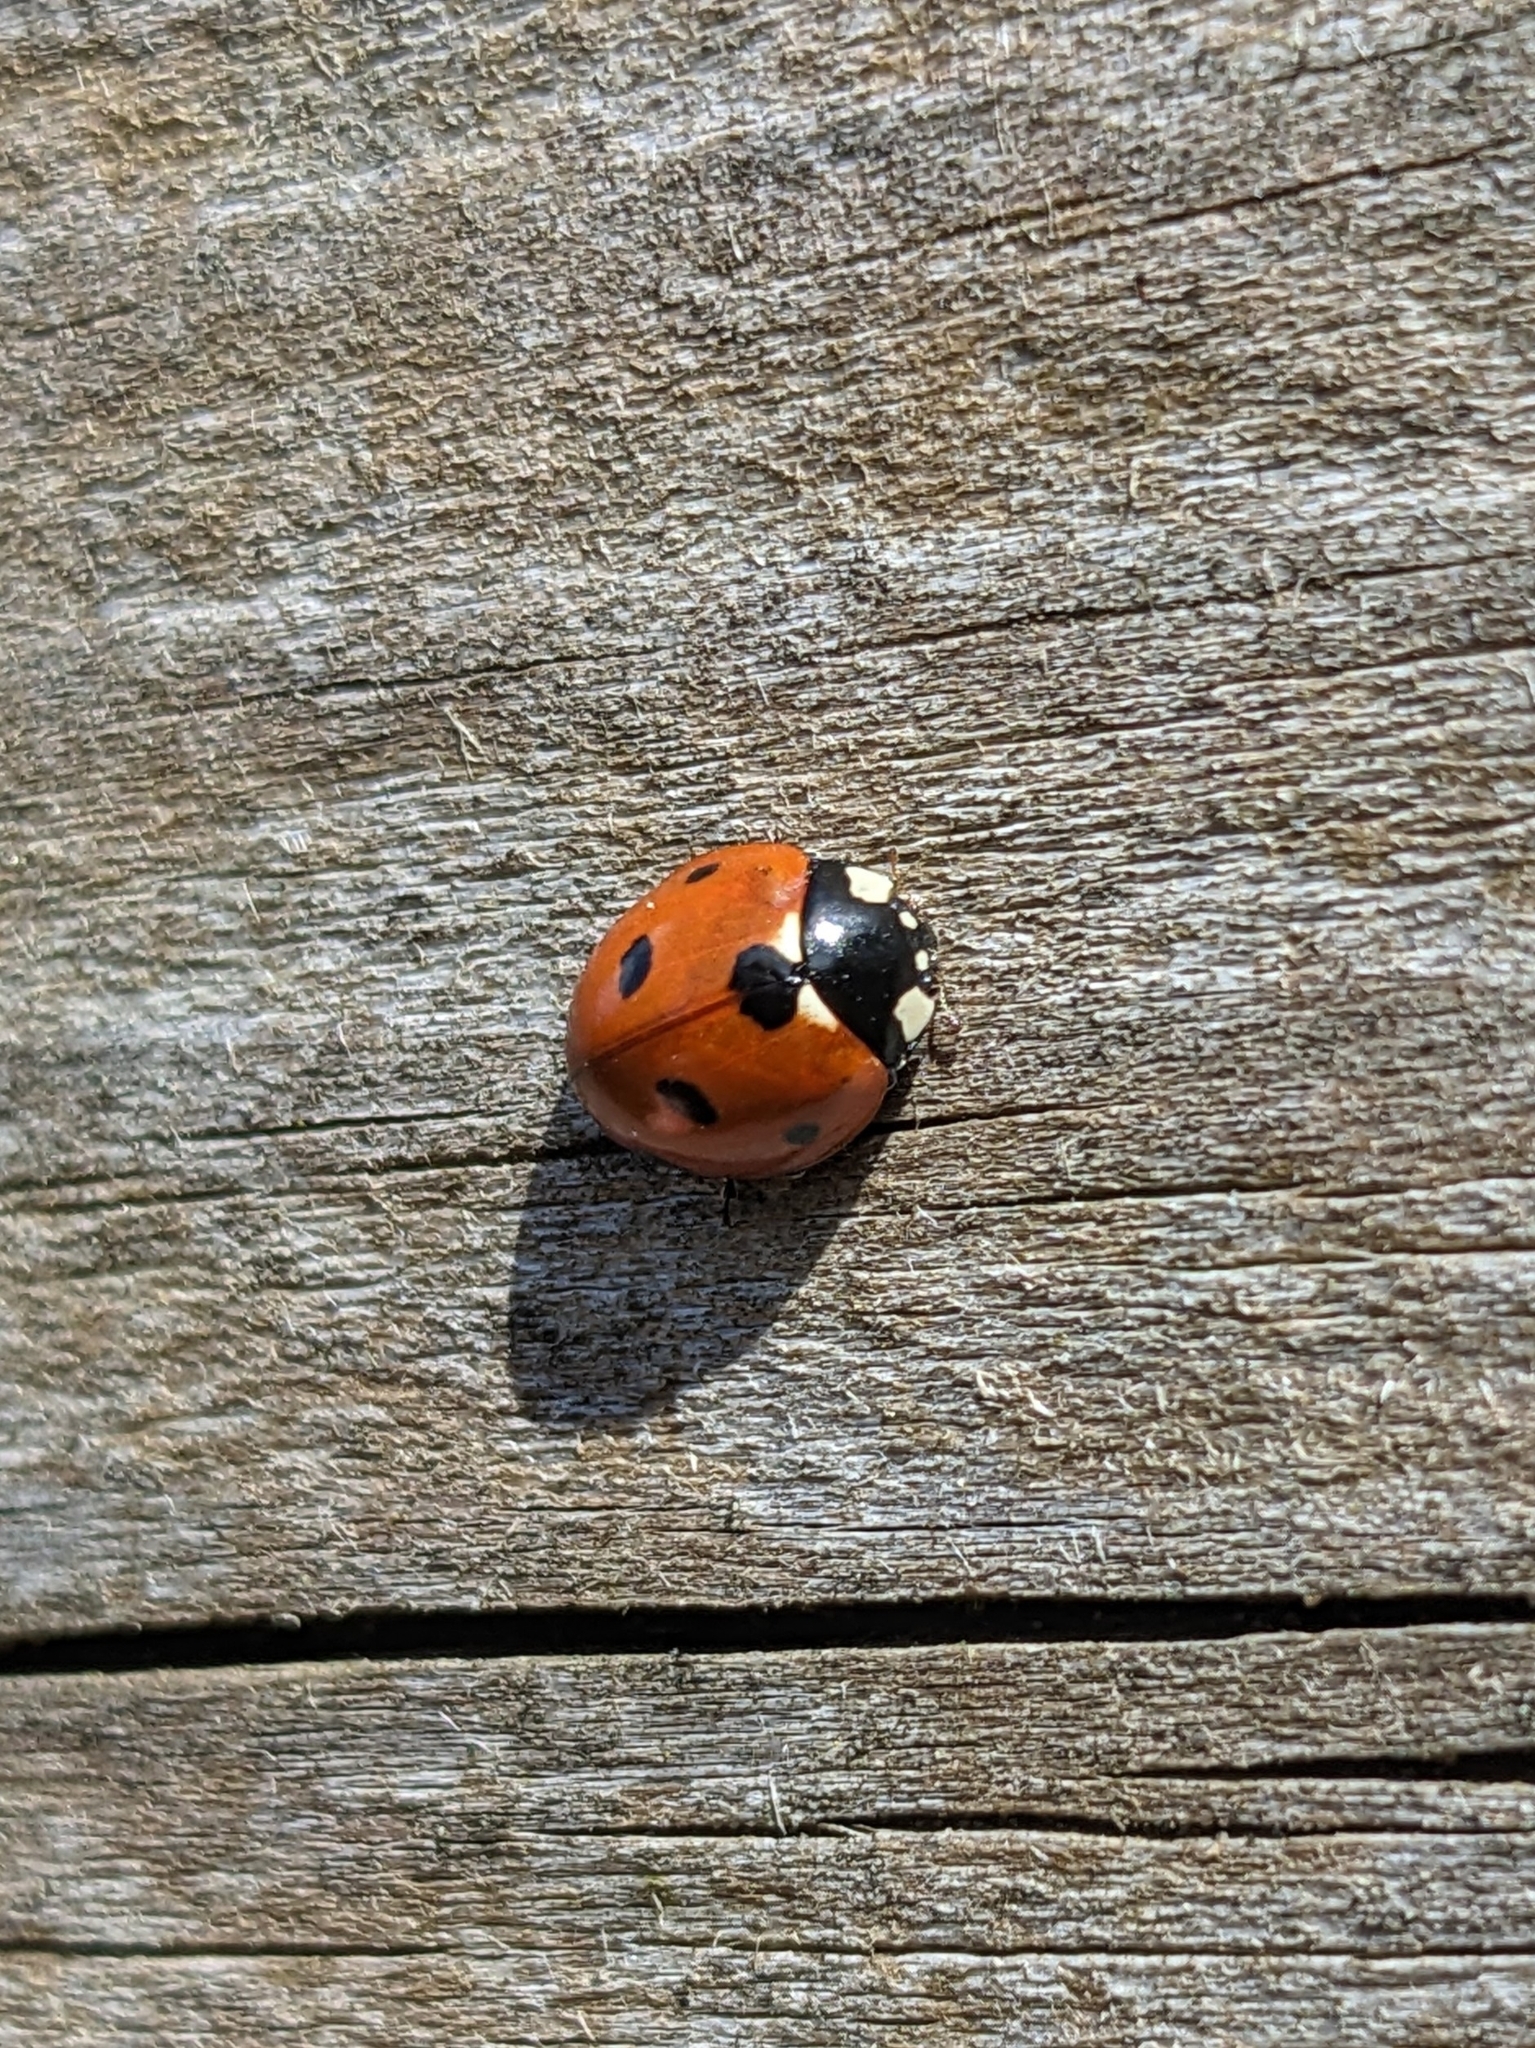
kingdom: Animalia
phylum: Arthropoda
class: Insecta
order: Coleoptera
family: Coccinellidae
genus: Coccinella
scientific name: Coccinella septempunctata
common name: Sevenspotted lady beetle
